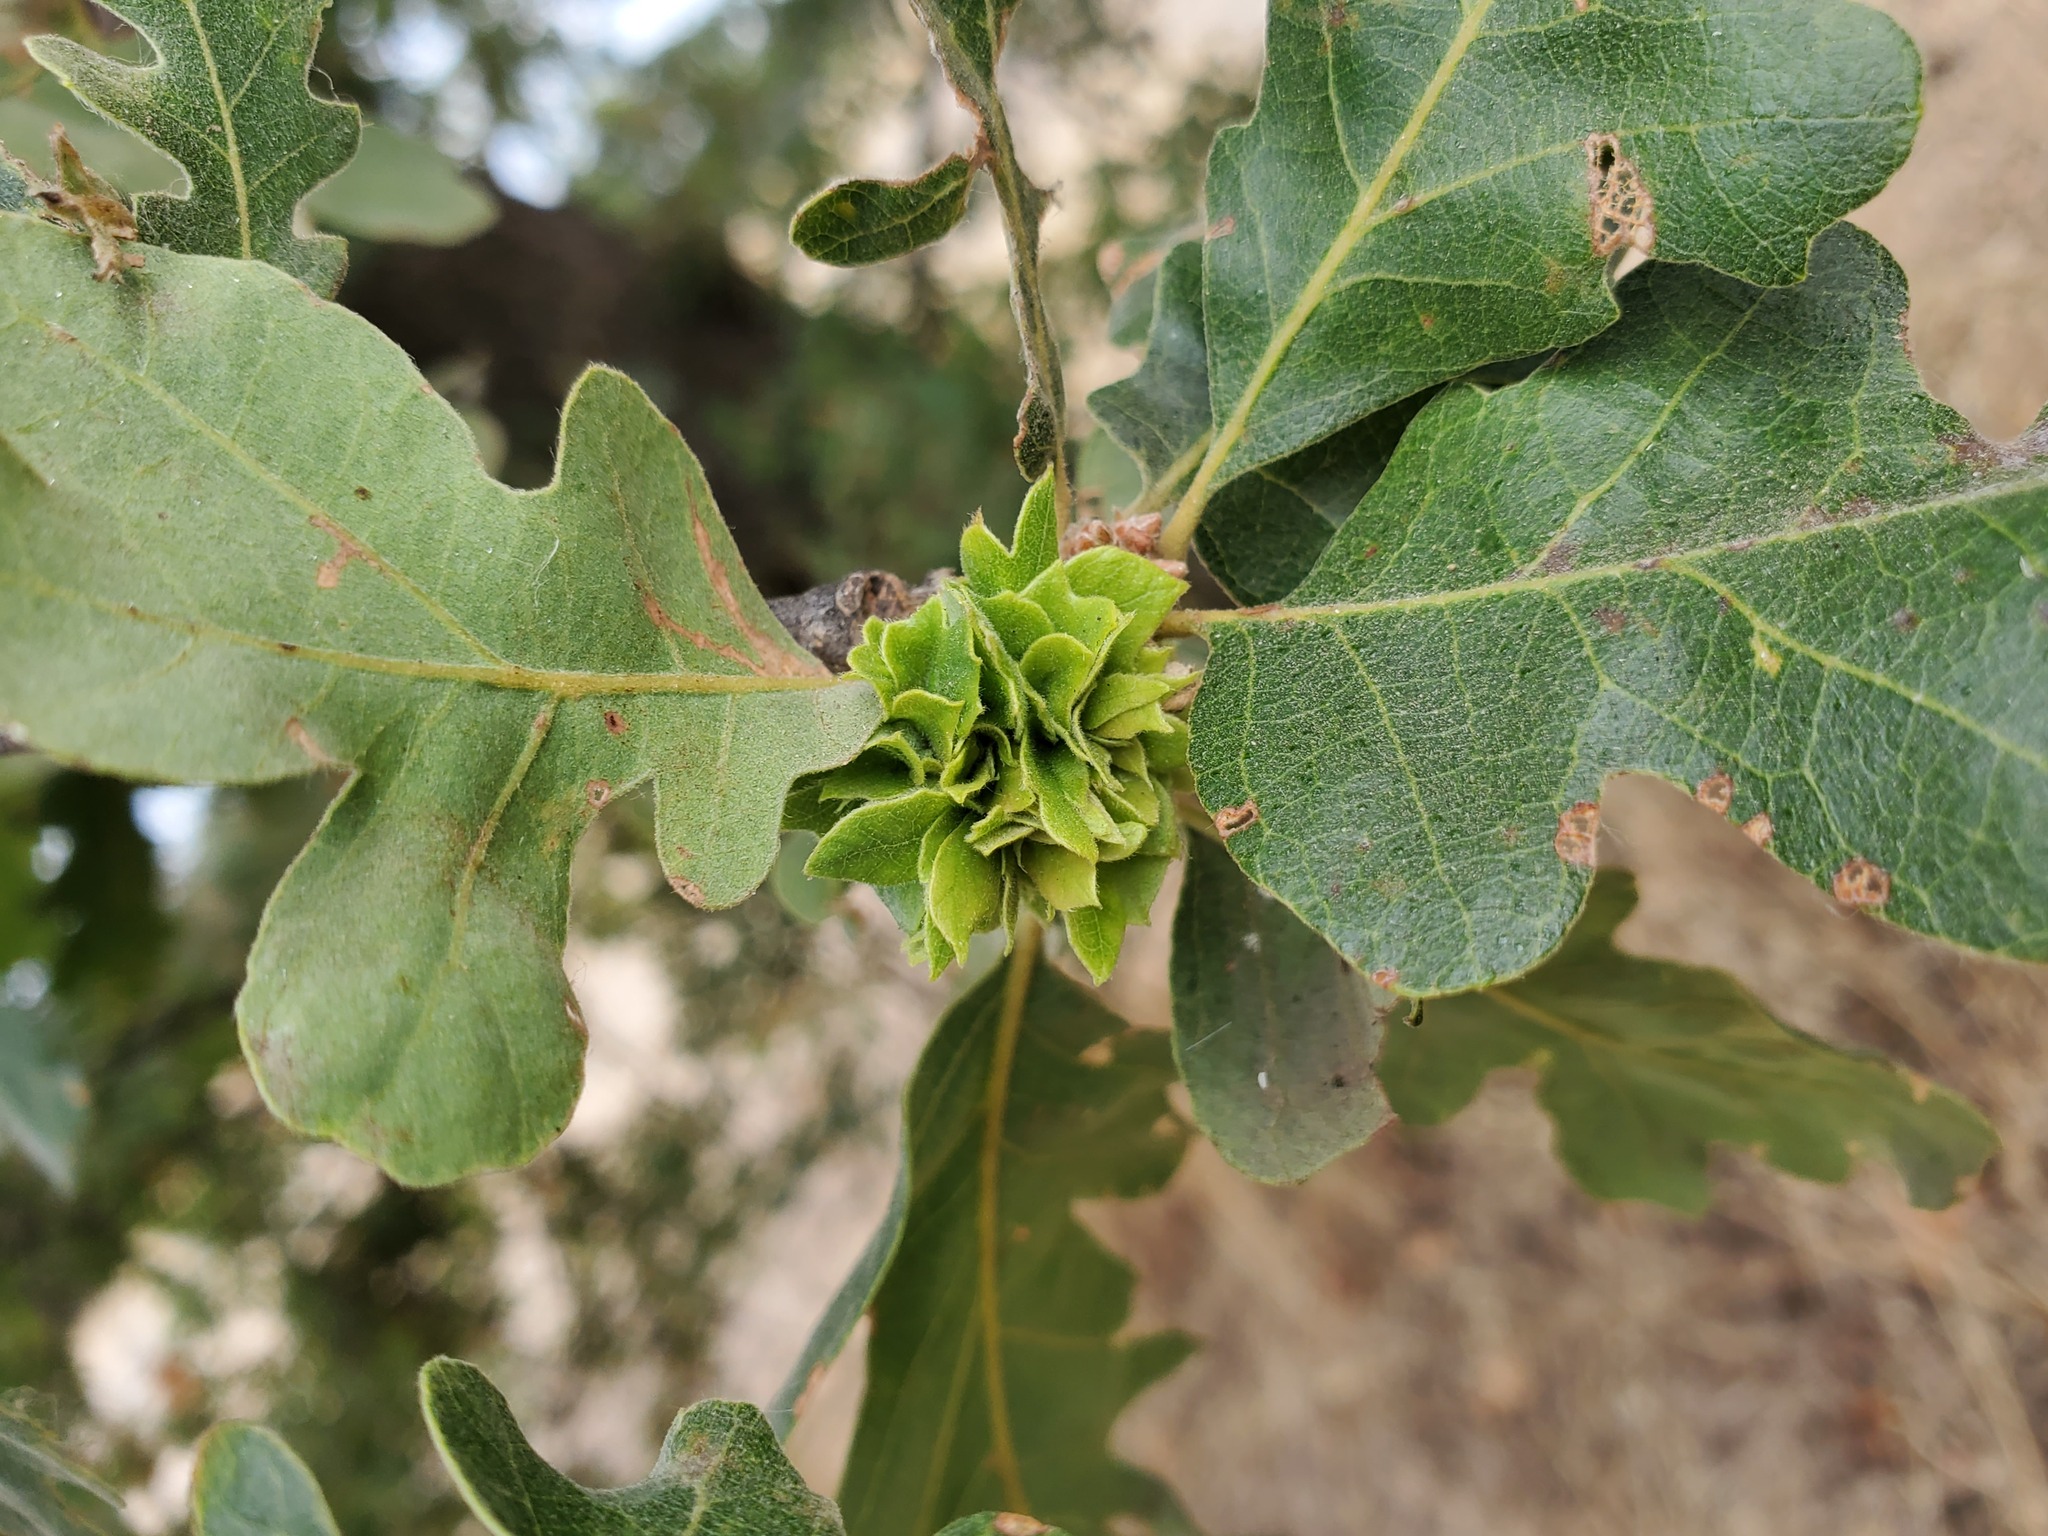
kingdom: Animalia
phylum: Arthropoda
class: Insecta
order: Hymenoptera
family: Cynipidae
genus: Andricus
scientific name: Andricus
